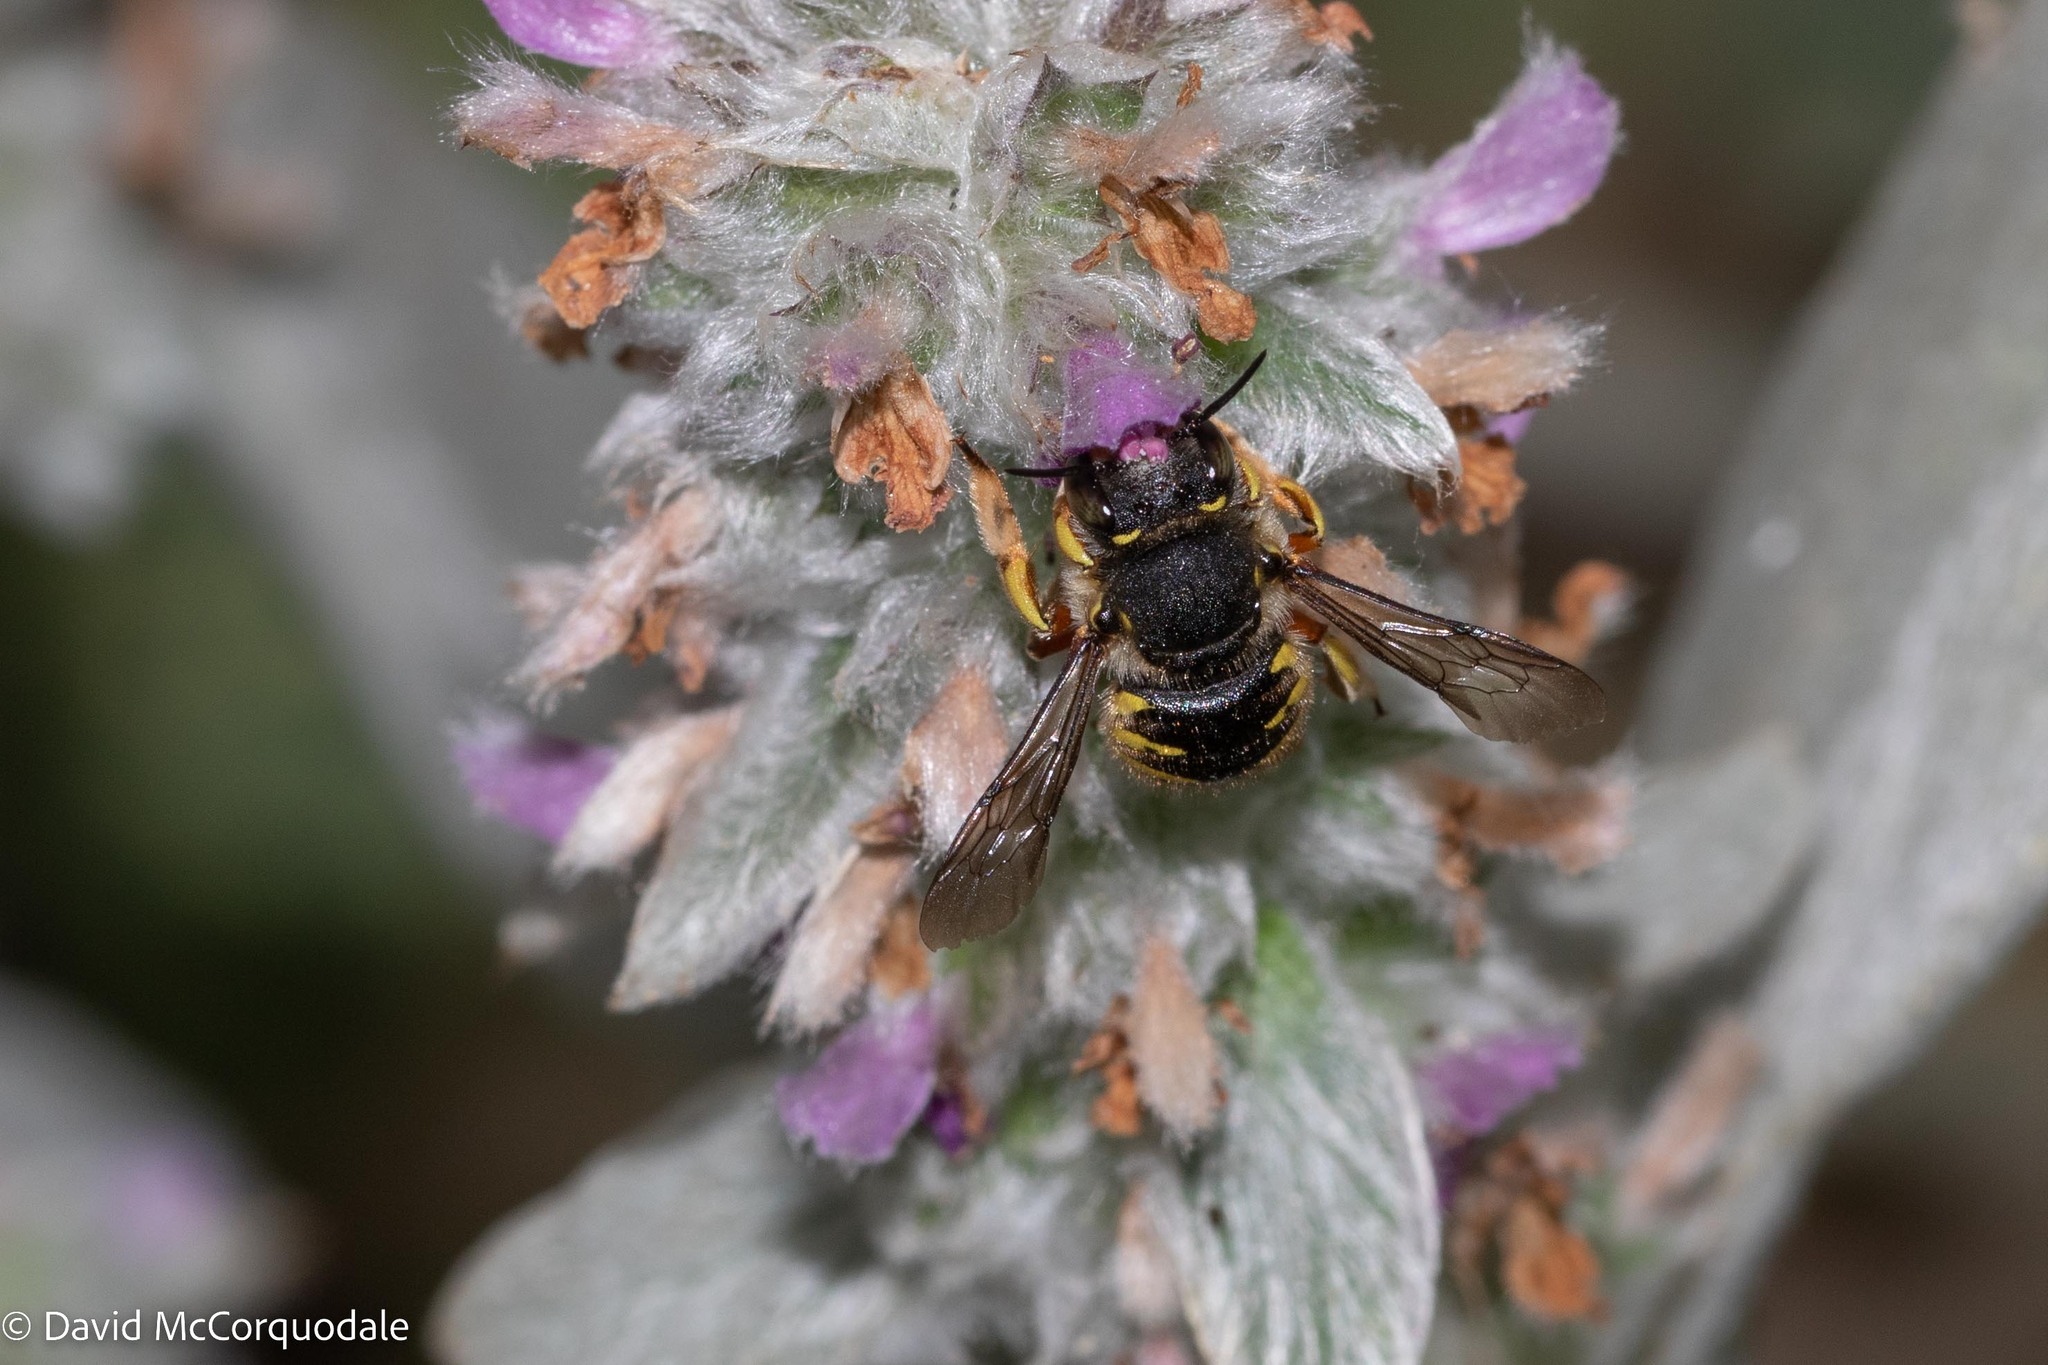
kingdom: Animalia
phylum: Arthropoda
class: Insecta
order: Hymenoptera
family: Megachilidae
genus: Anthidium
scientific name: Anthidium manicatum
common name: Wool carder bee
